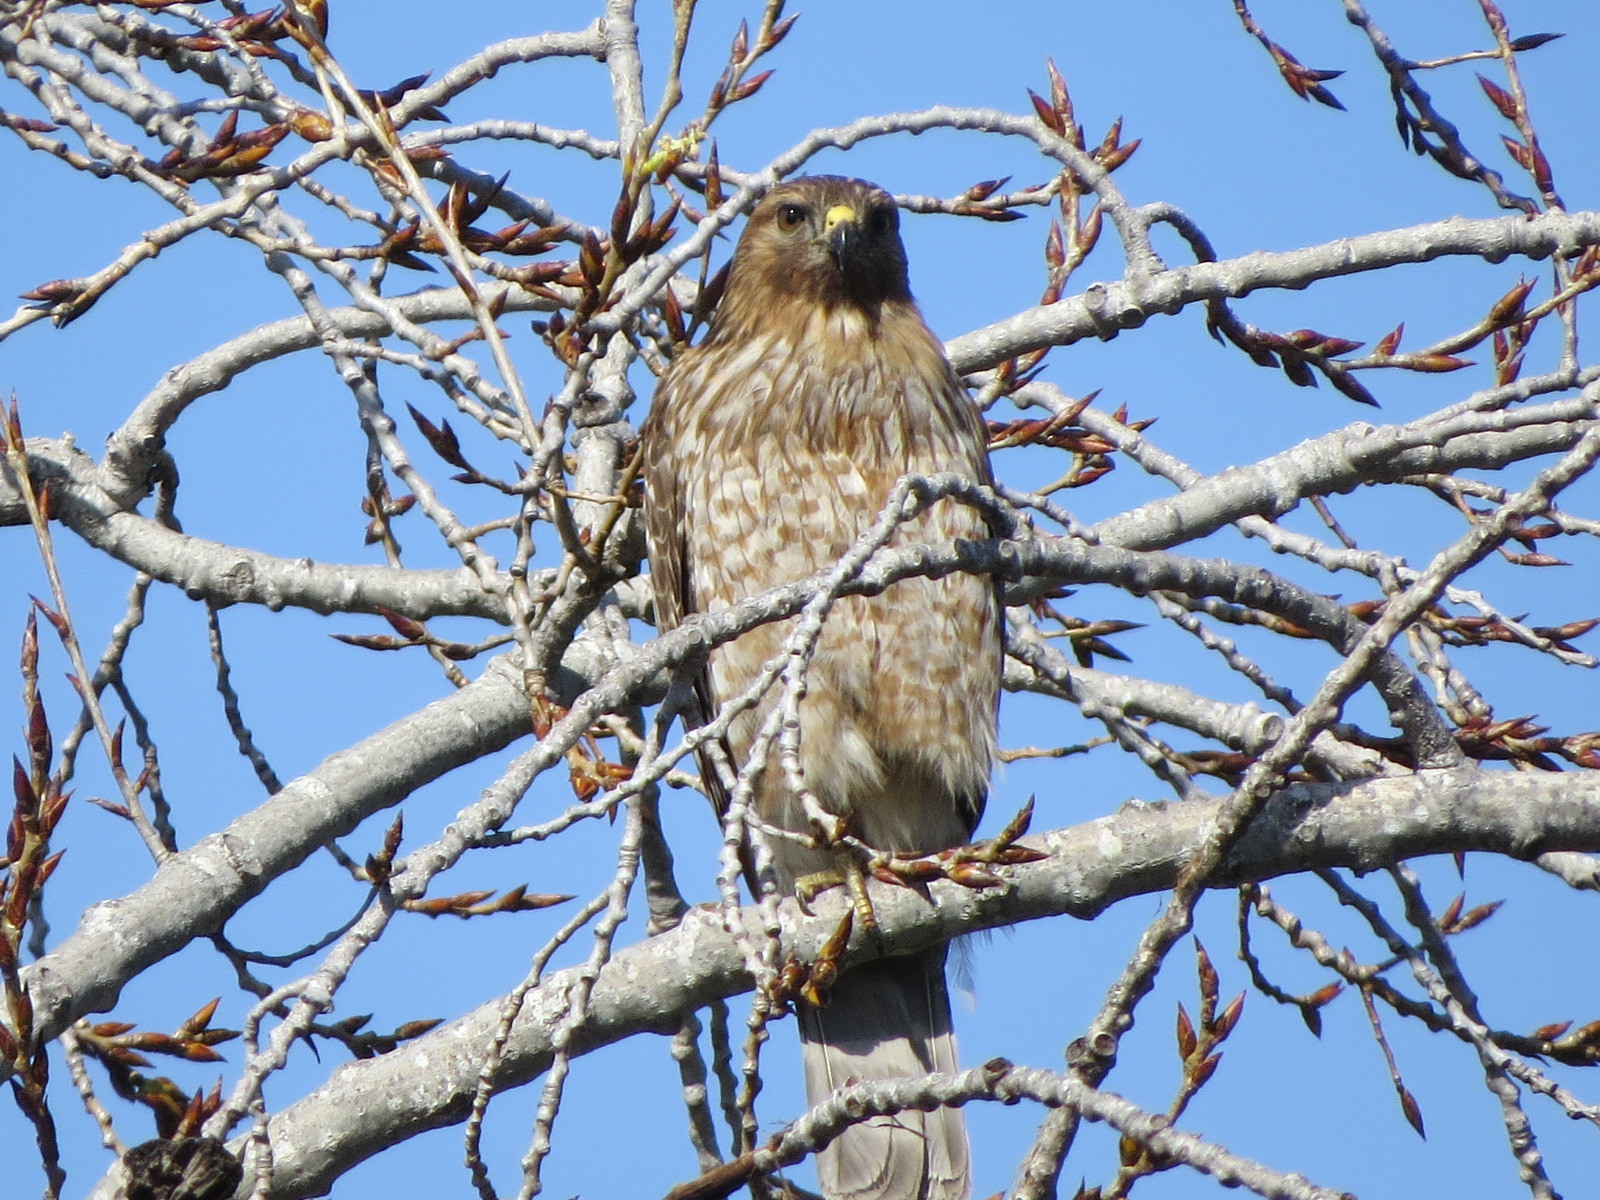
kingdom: Animalia
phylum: Chordata
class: Aves
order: Accipitriformes
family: Accipitridae
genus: Buteo
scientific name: Buteo lineatus
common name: Red-shouldered hawk
